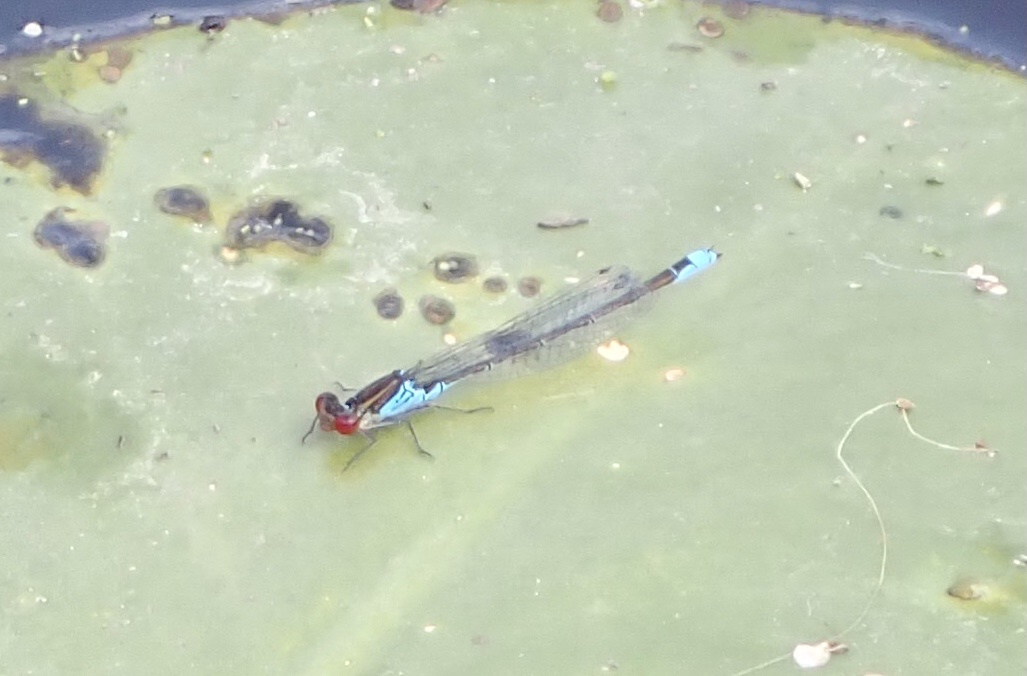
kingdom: Animalia
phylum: Arthropoda
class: Insecta
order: Odonata
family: Coenagrionidae
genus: Erythromma
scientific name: Erythromma viridulum
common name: Small red-eyed damselfly
